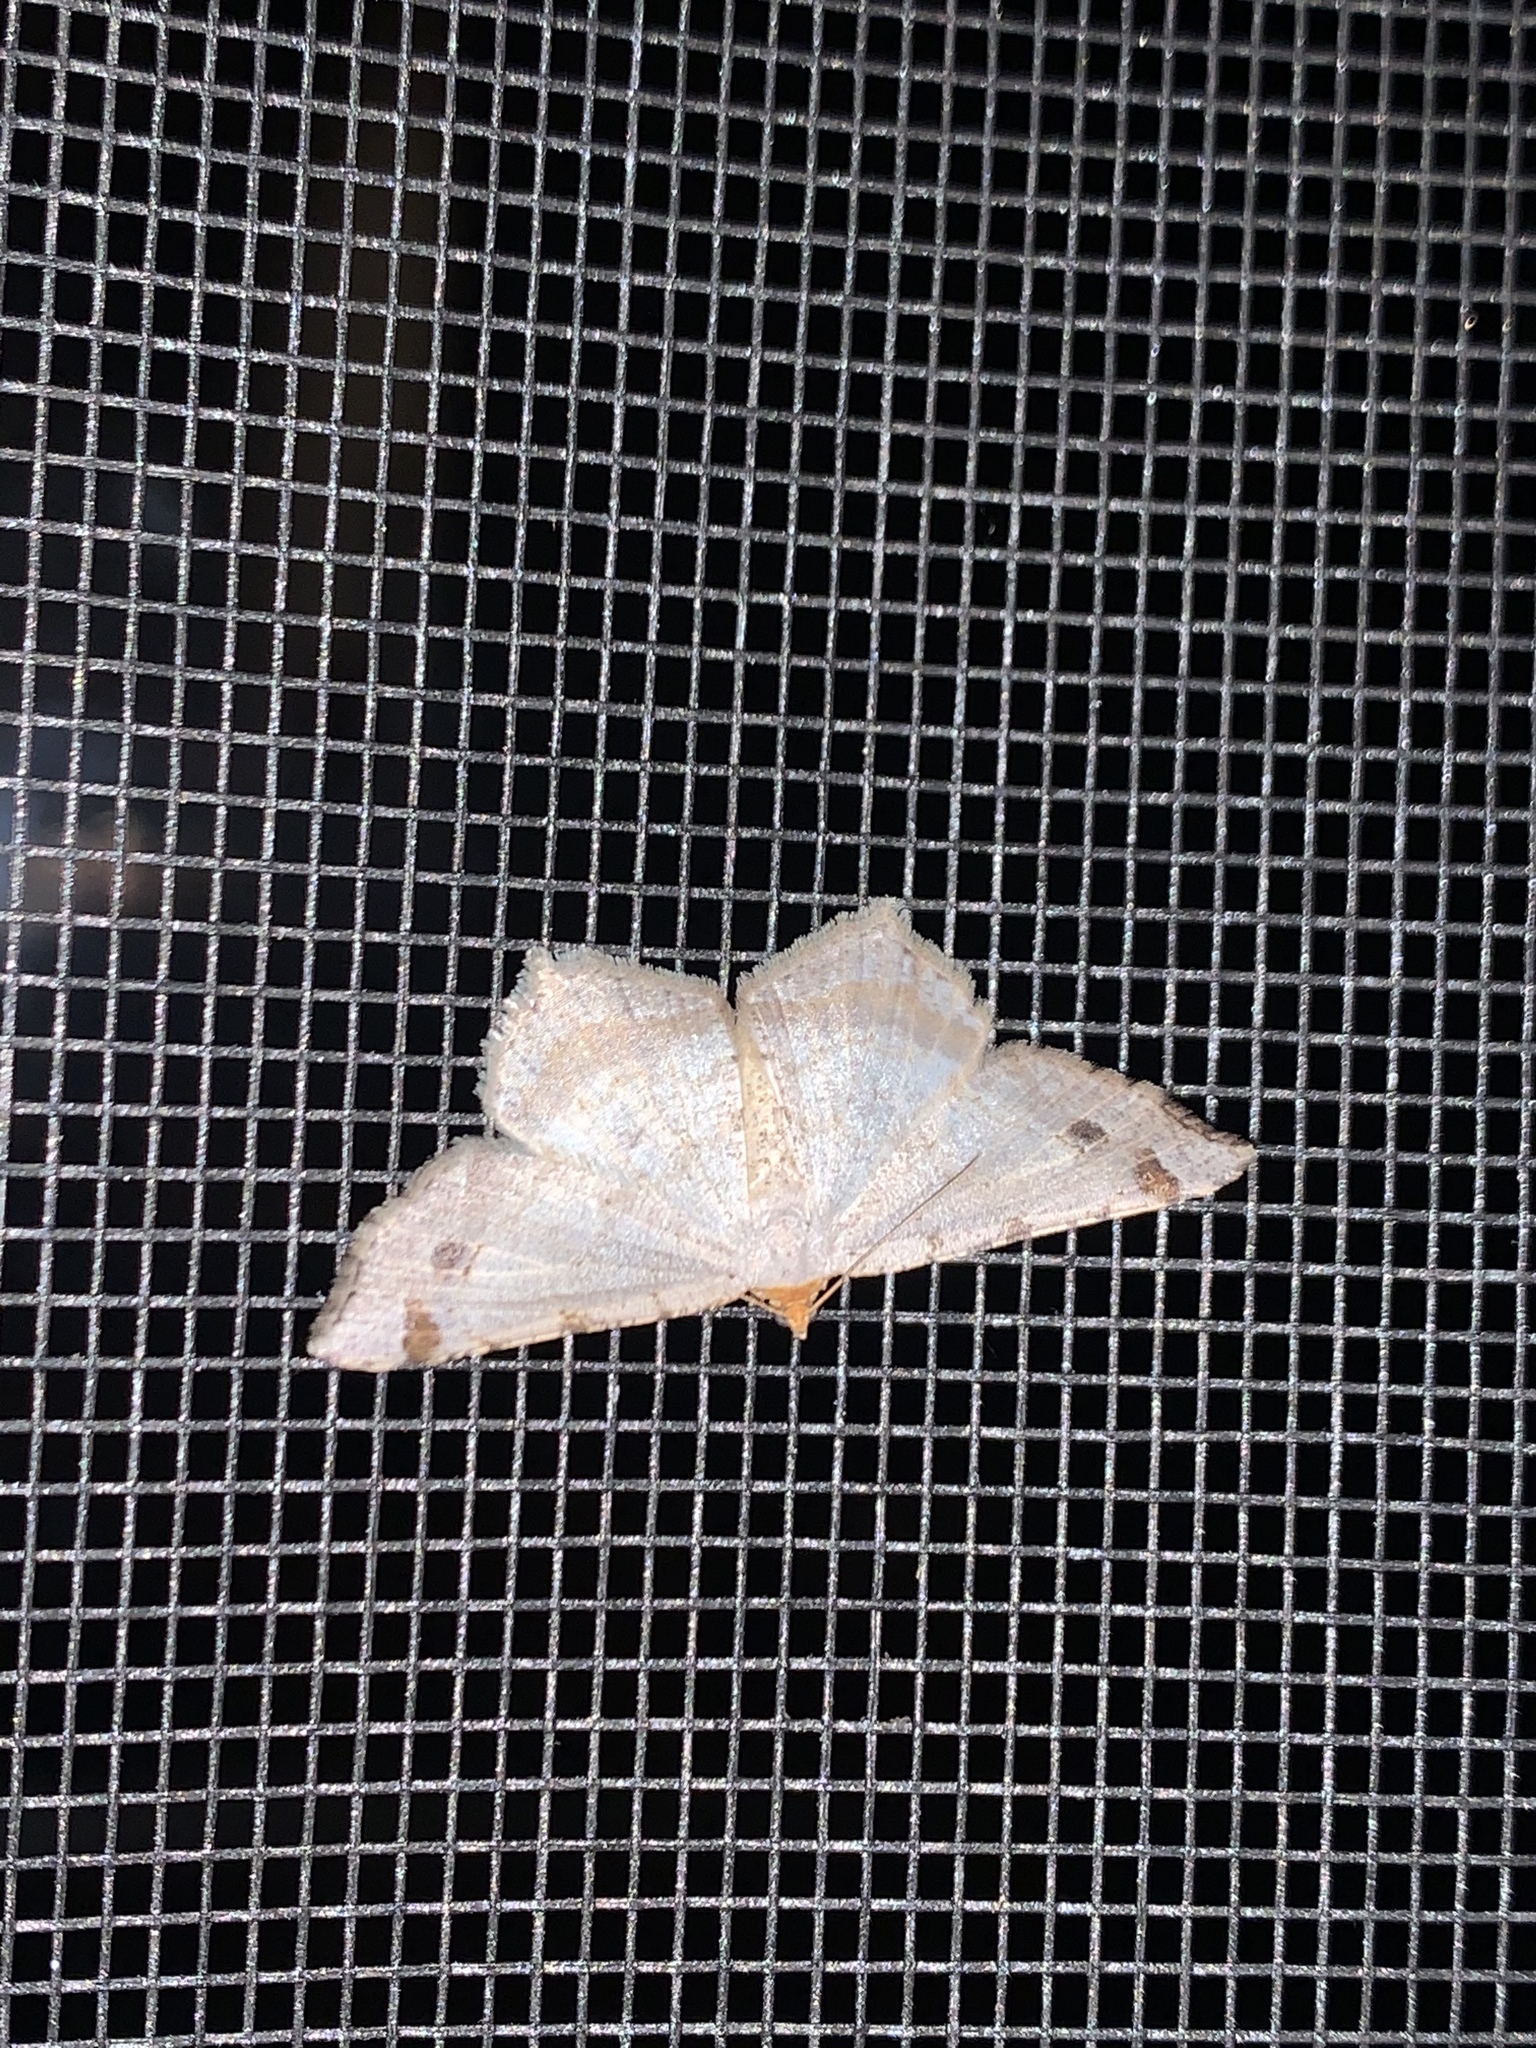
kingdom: Animalia
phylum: Arthropoda
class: Insecta
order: Lepidoptera
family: Geometridae
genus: Macaria
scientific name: Macaria bisignata
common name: Red-headed inchworm
